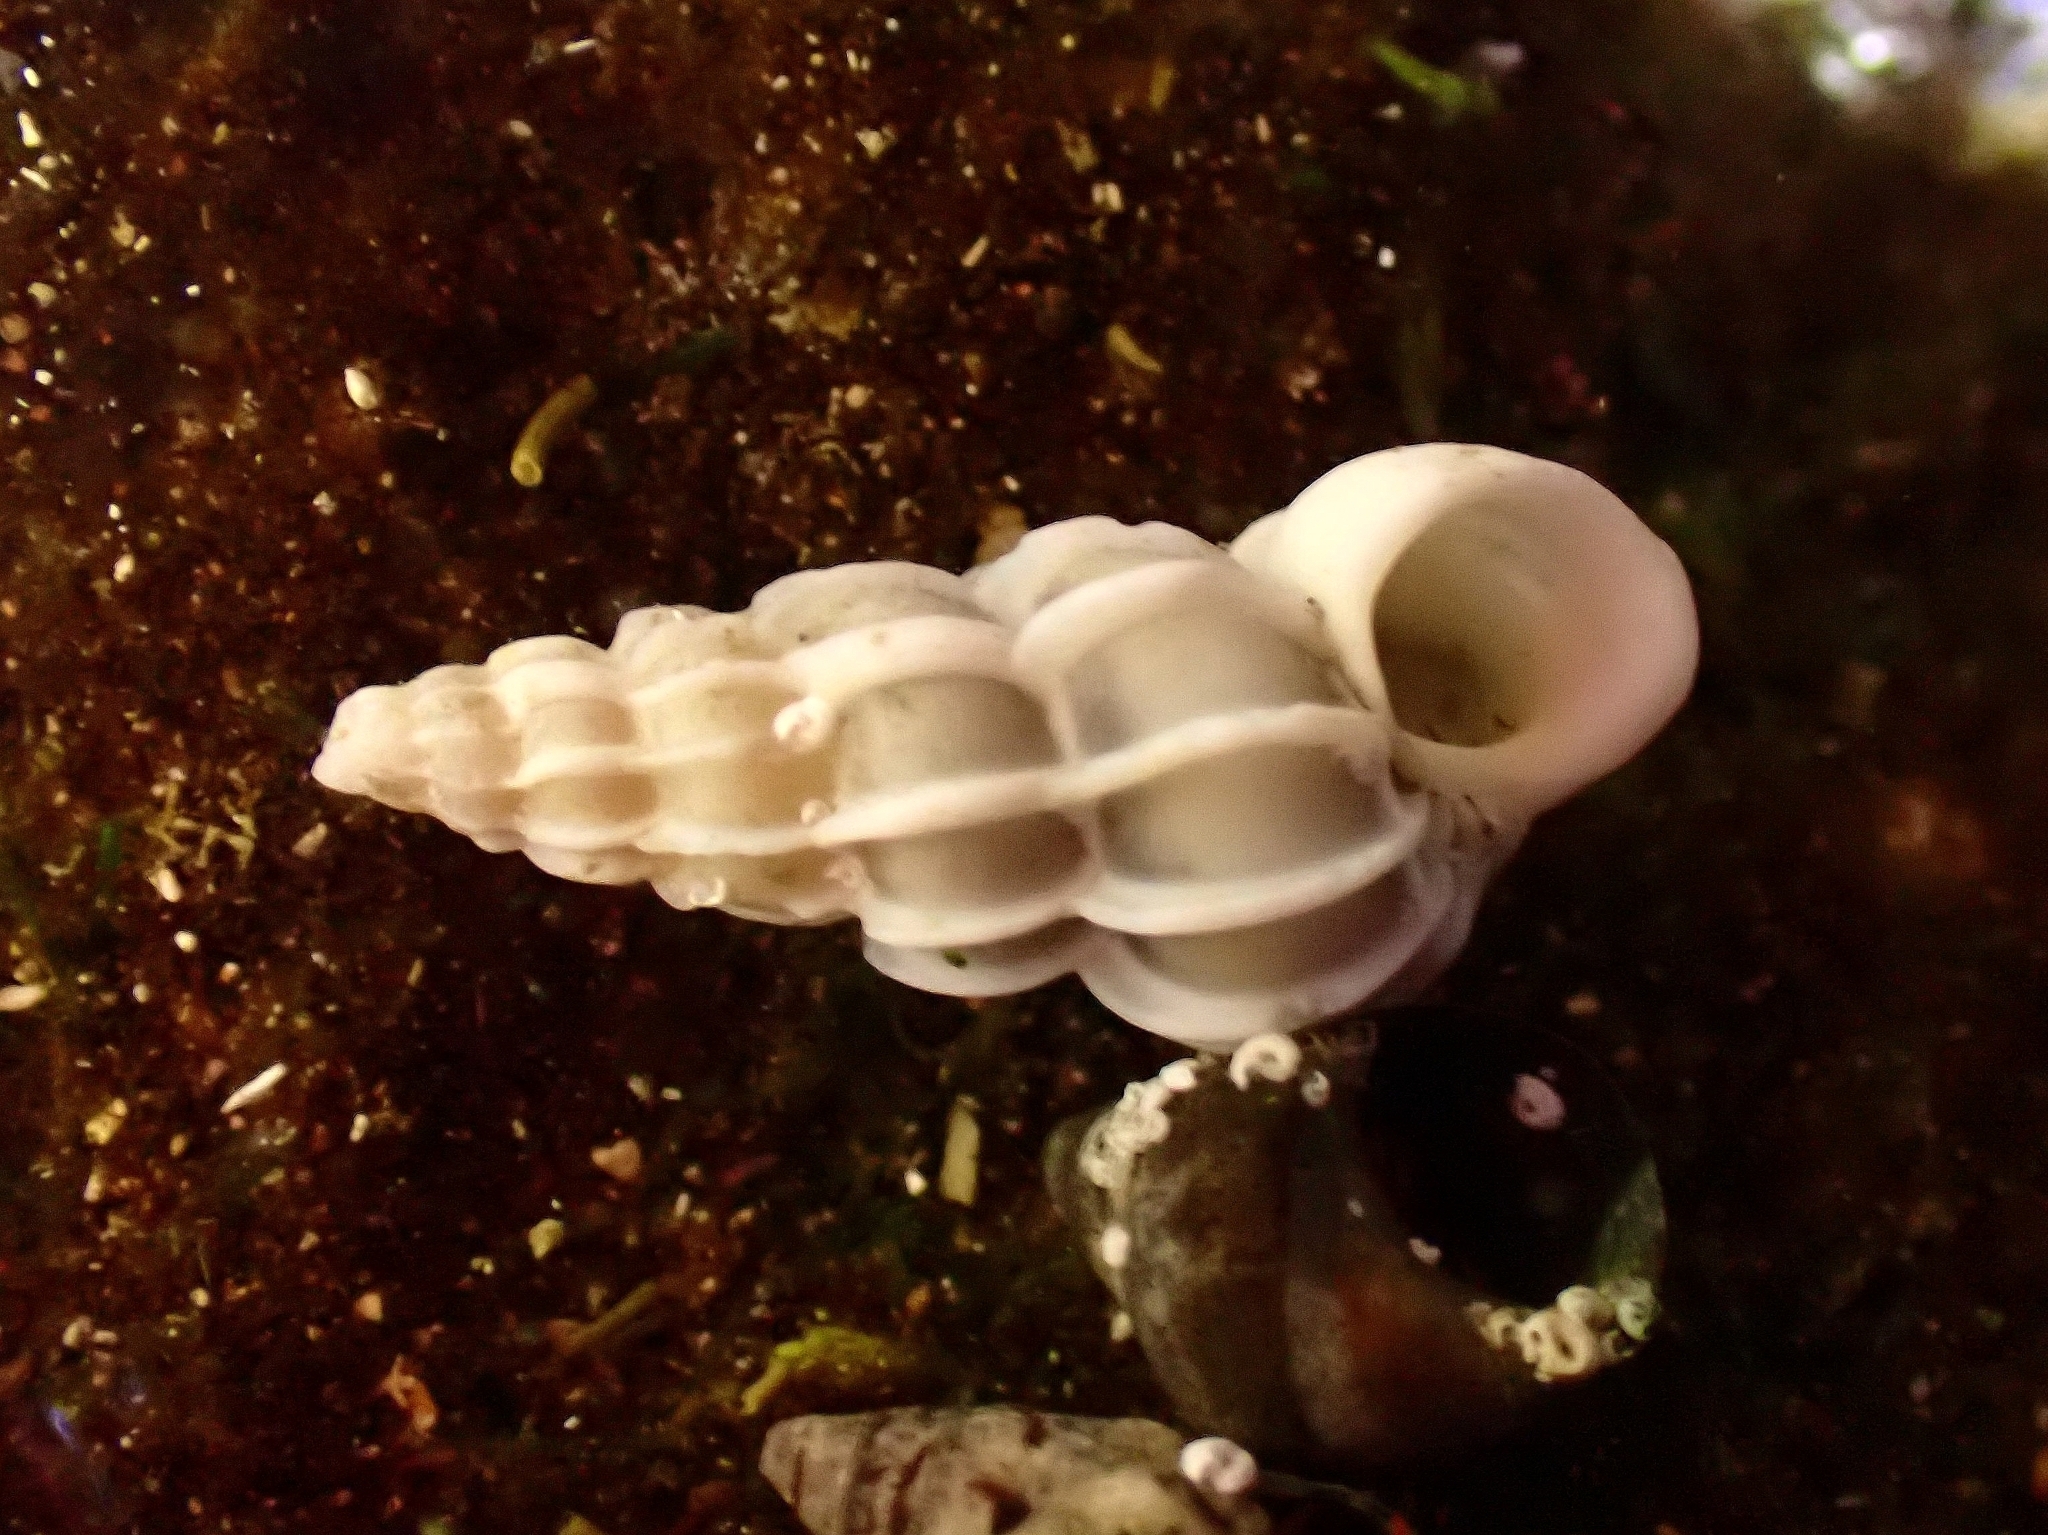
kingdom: Animalia
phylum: Mollusca
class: Gastropoda
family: Epitoniidae
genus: Gyroscala
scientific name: Gyroscala commutata
